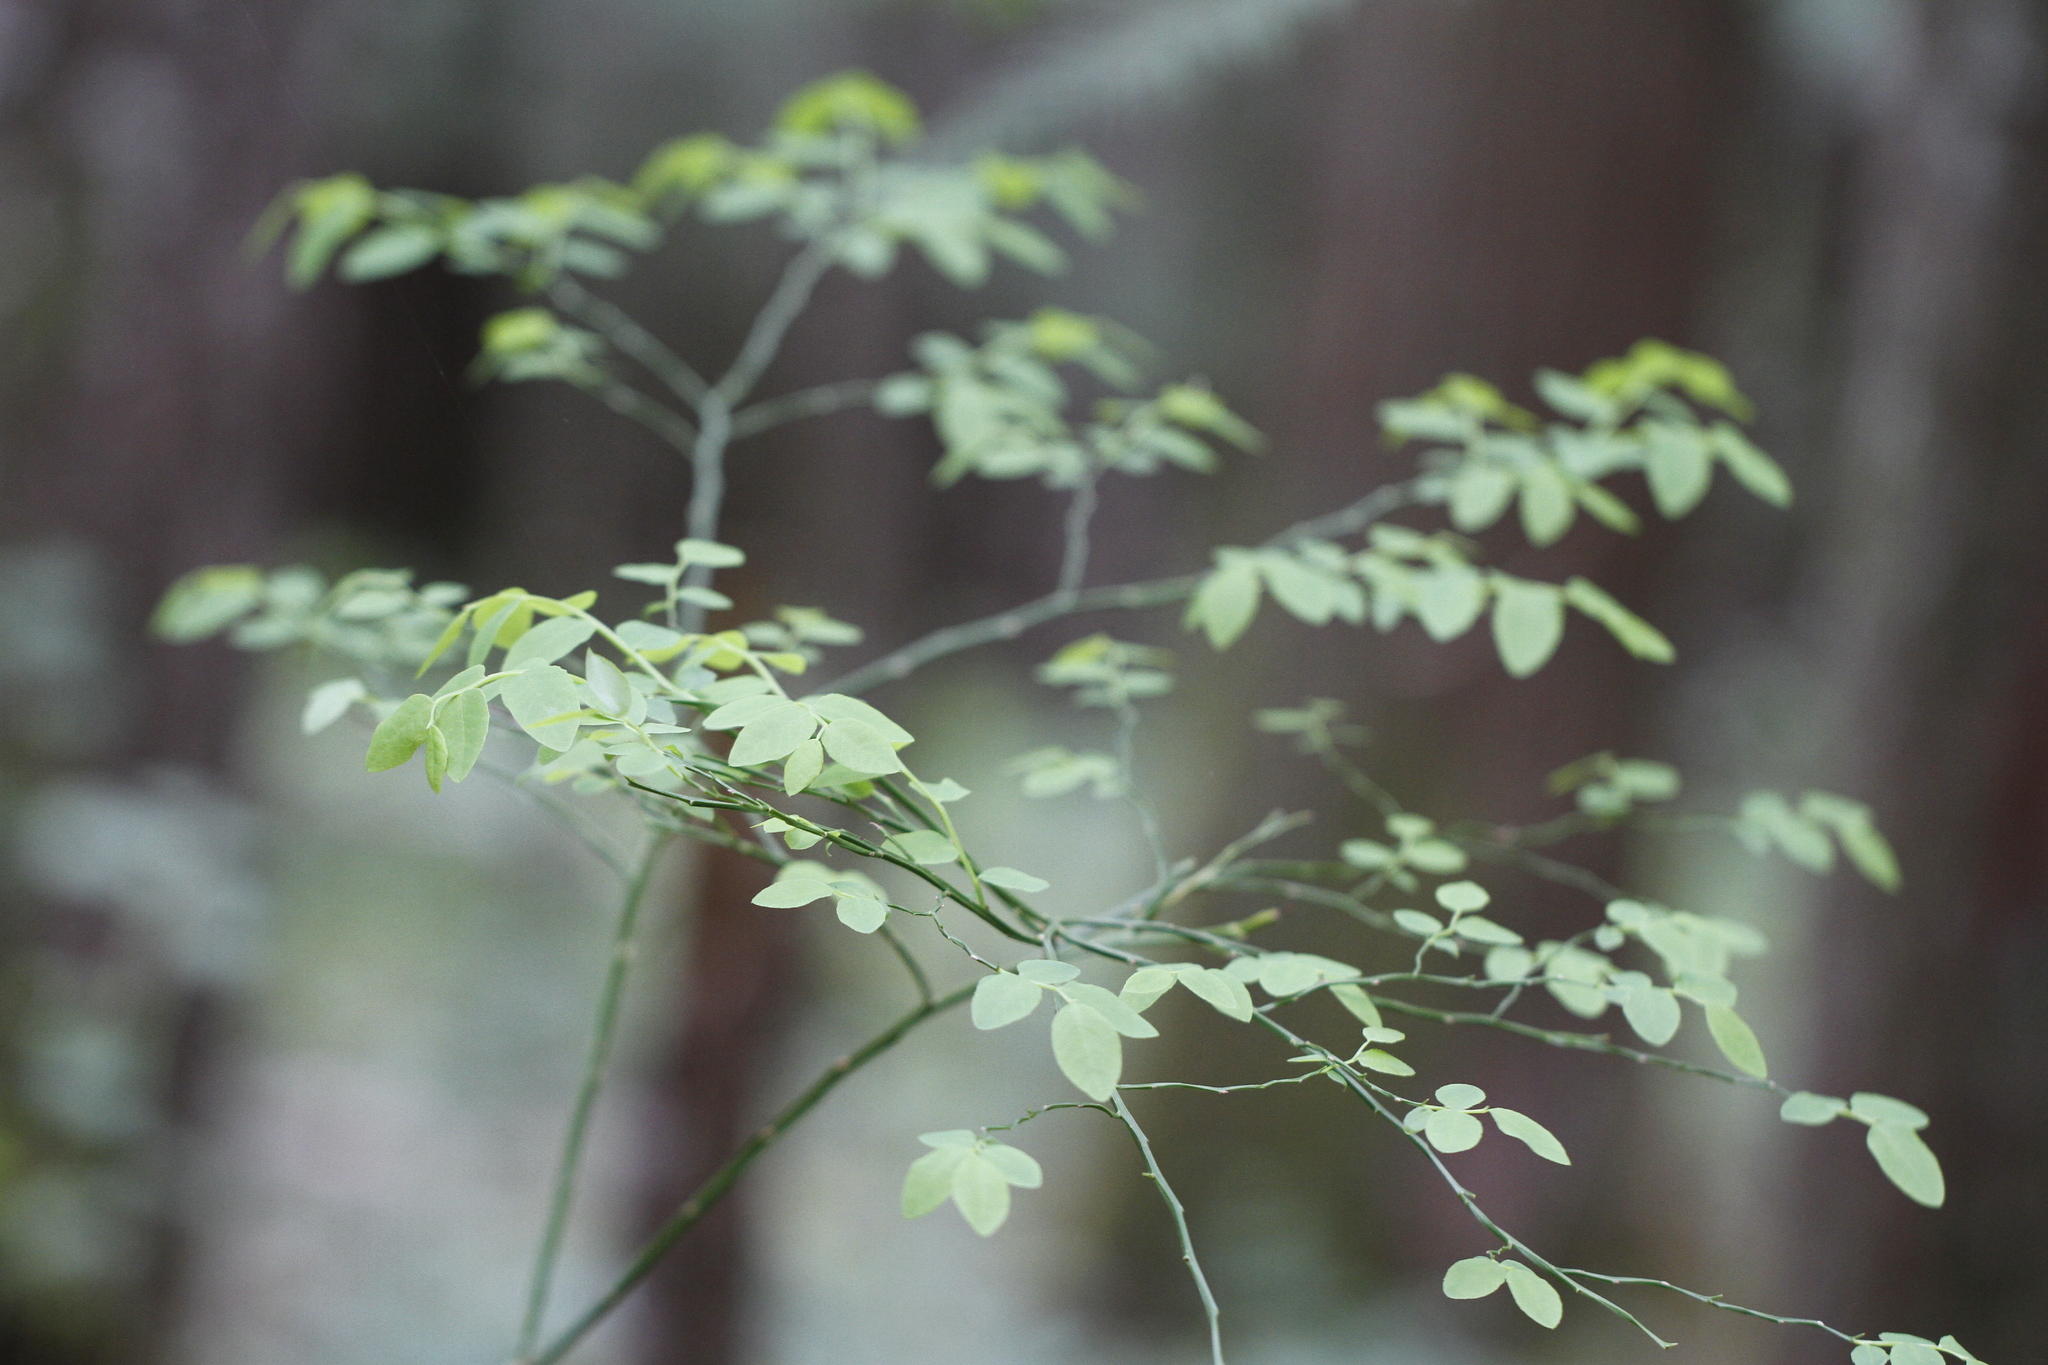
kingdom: Plantae
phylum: Tracheophyta
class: Magnoliopsida
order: Ericales
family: Ericaceae
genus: Vaccinium
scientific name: Vaccinium parvifolium
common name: Red-huckleberry
